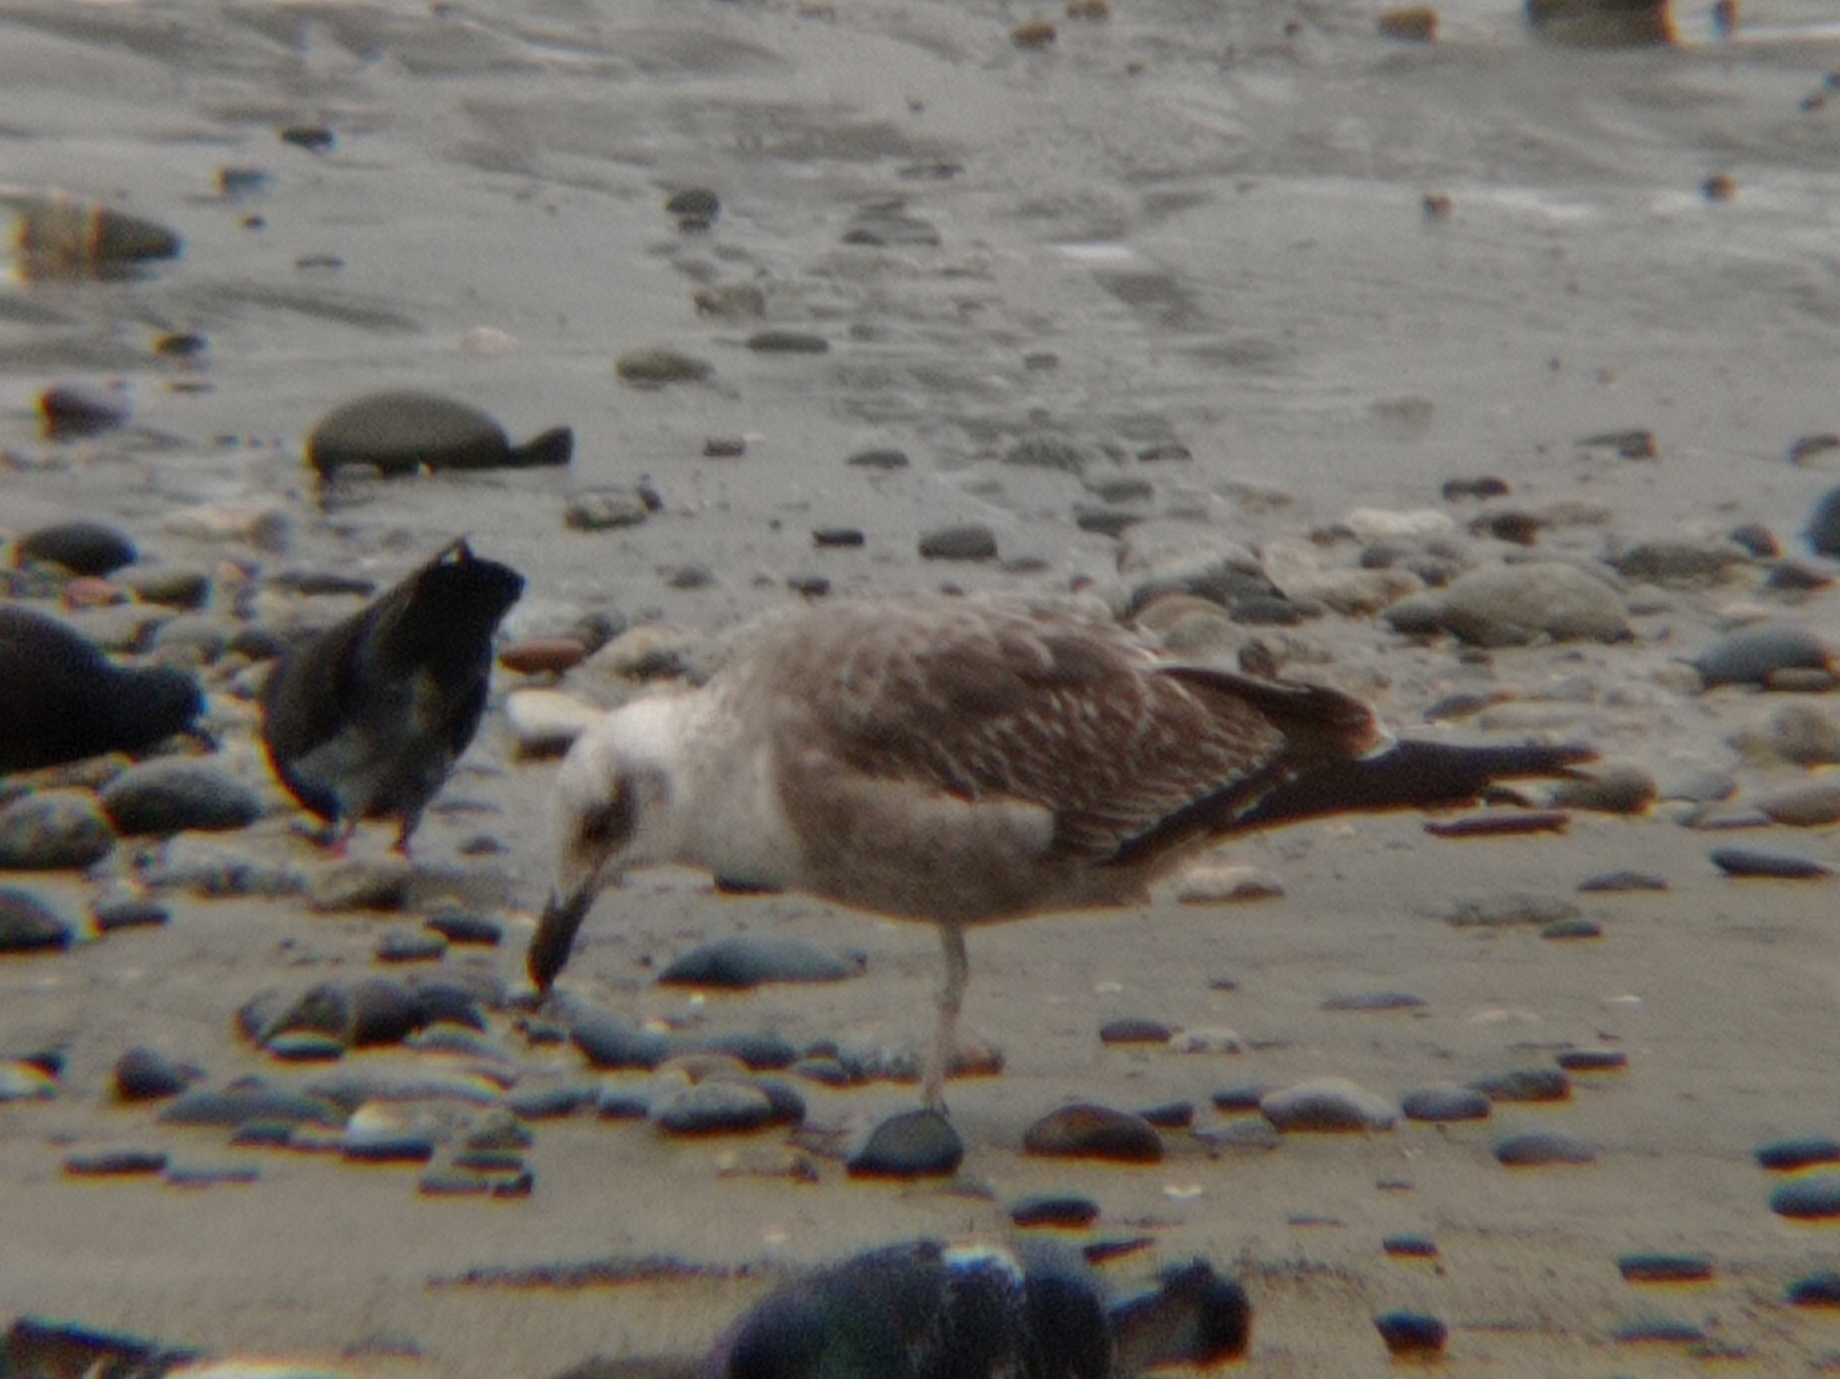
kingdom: Animalia
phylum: Chordata
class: Aves
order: Charadriiformes
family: Laridae
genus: Larus
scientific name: Larus dominicanus
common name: Kelp gull
